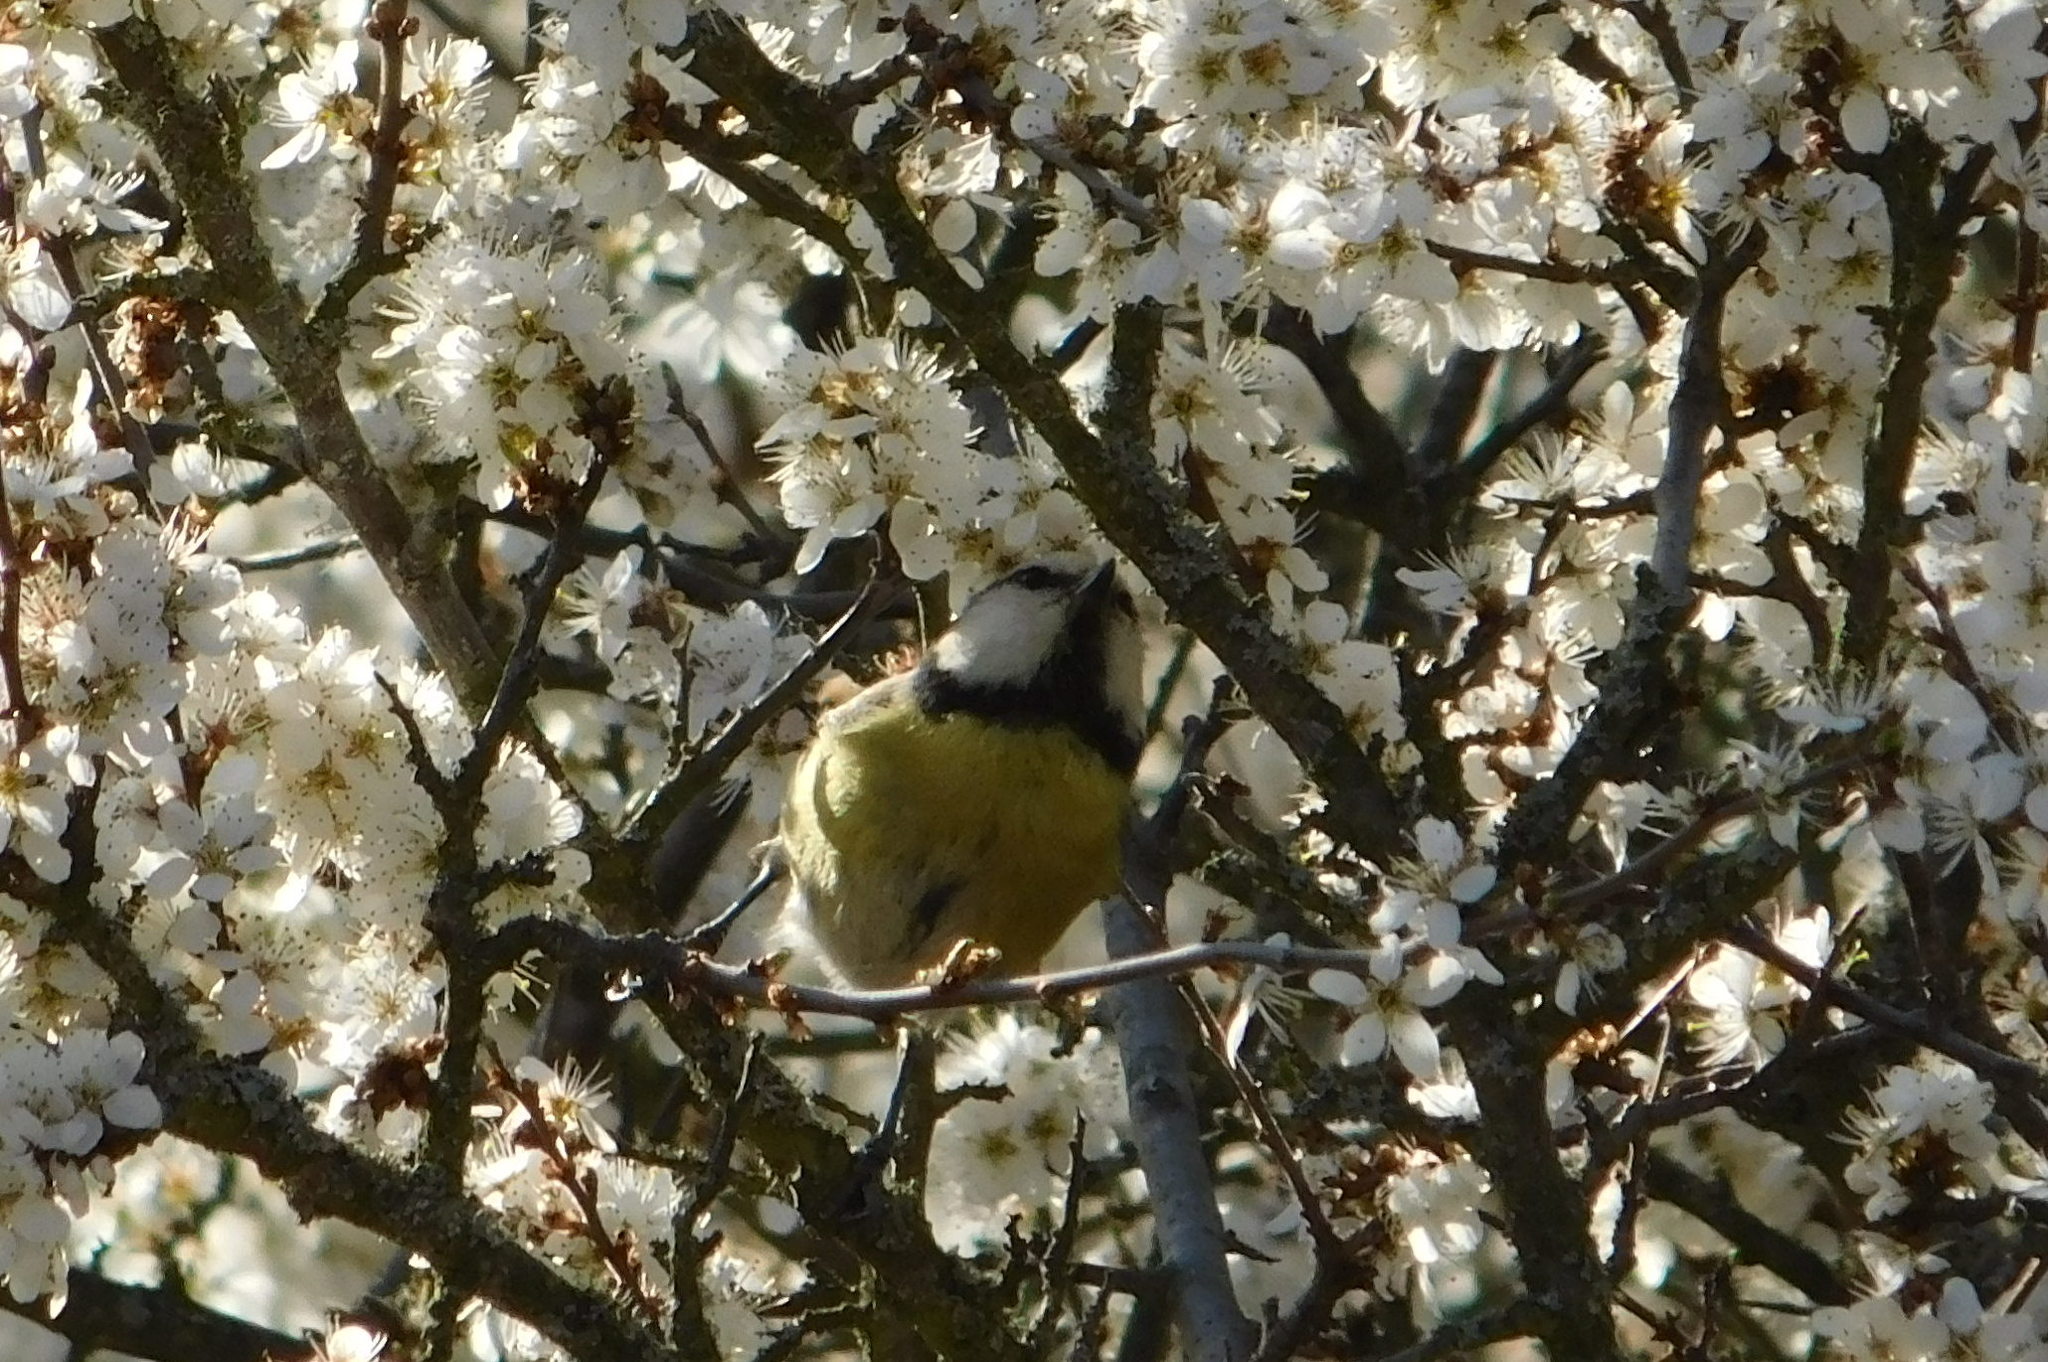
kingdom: Animalia
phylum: Chordata
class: Aves
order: Passeriformes
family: Paridae
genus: Cyanistes
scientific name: Cyanistes caeruleus
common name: Eurasian blue tit
